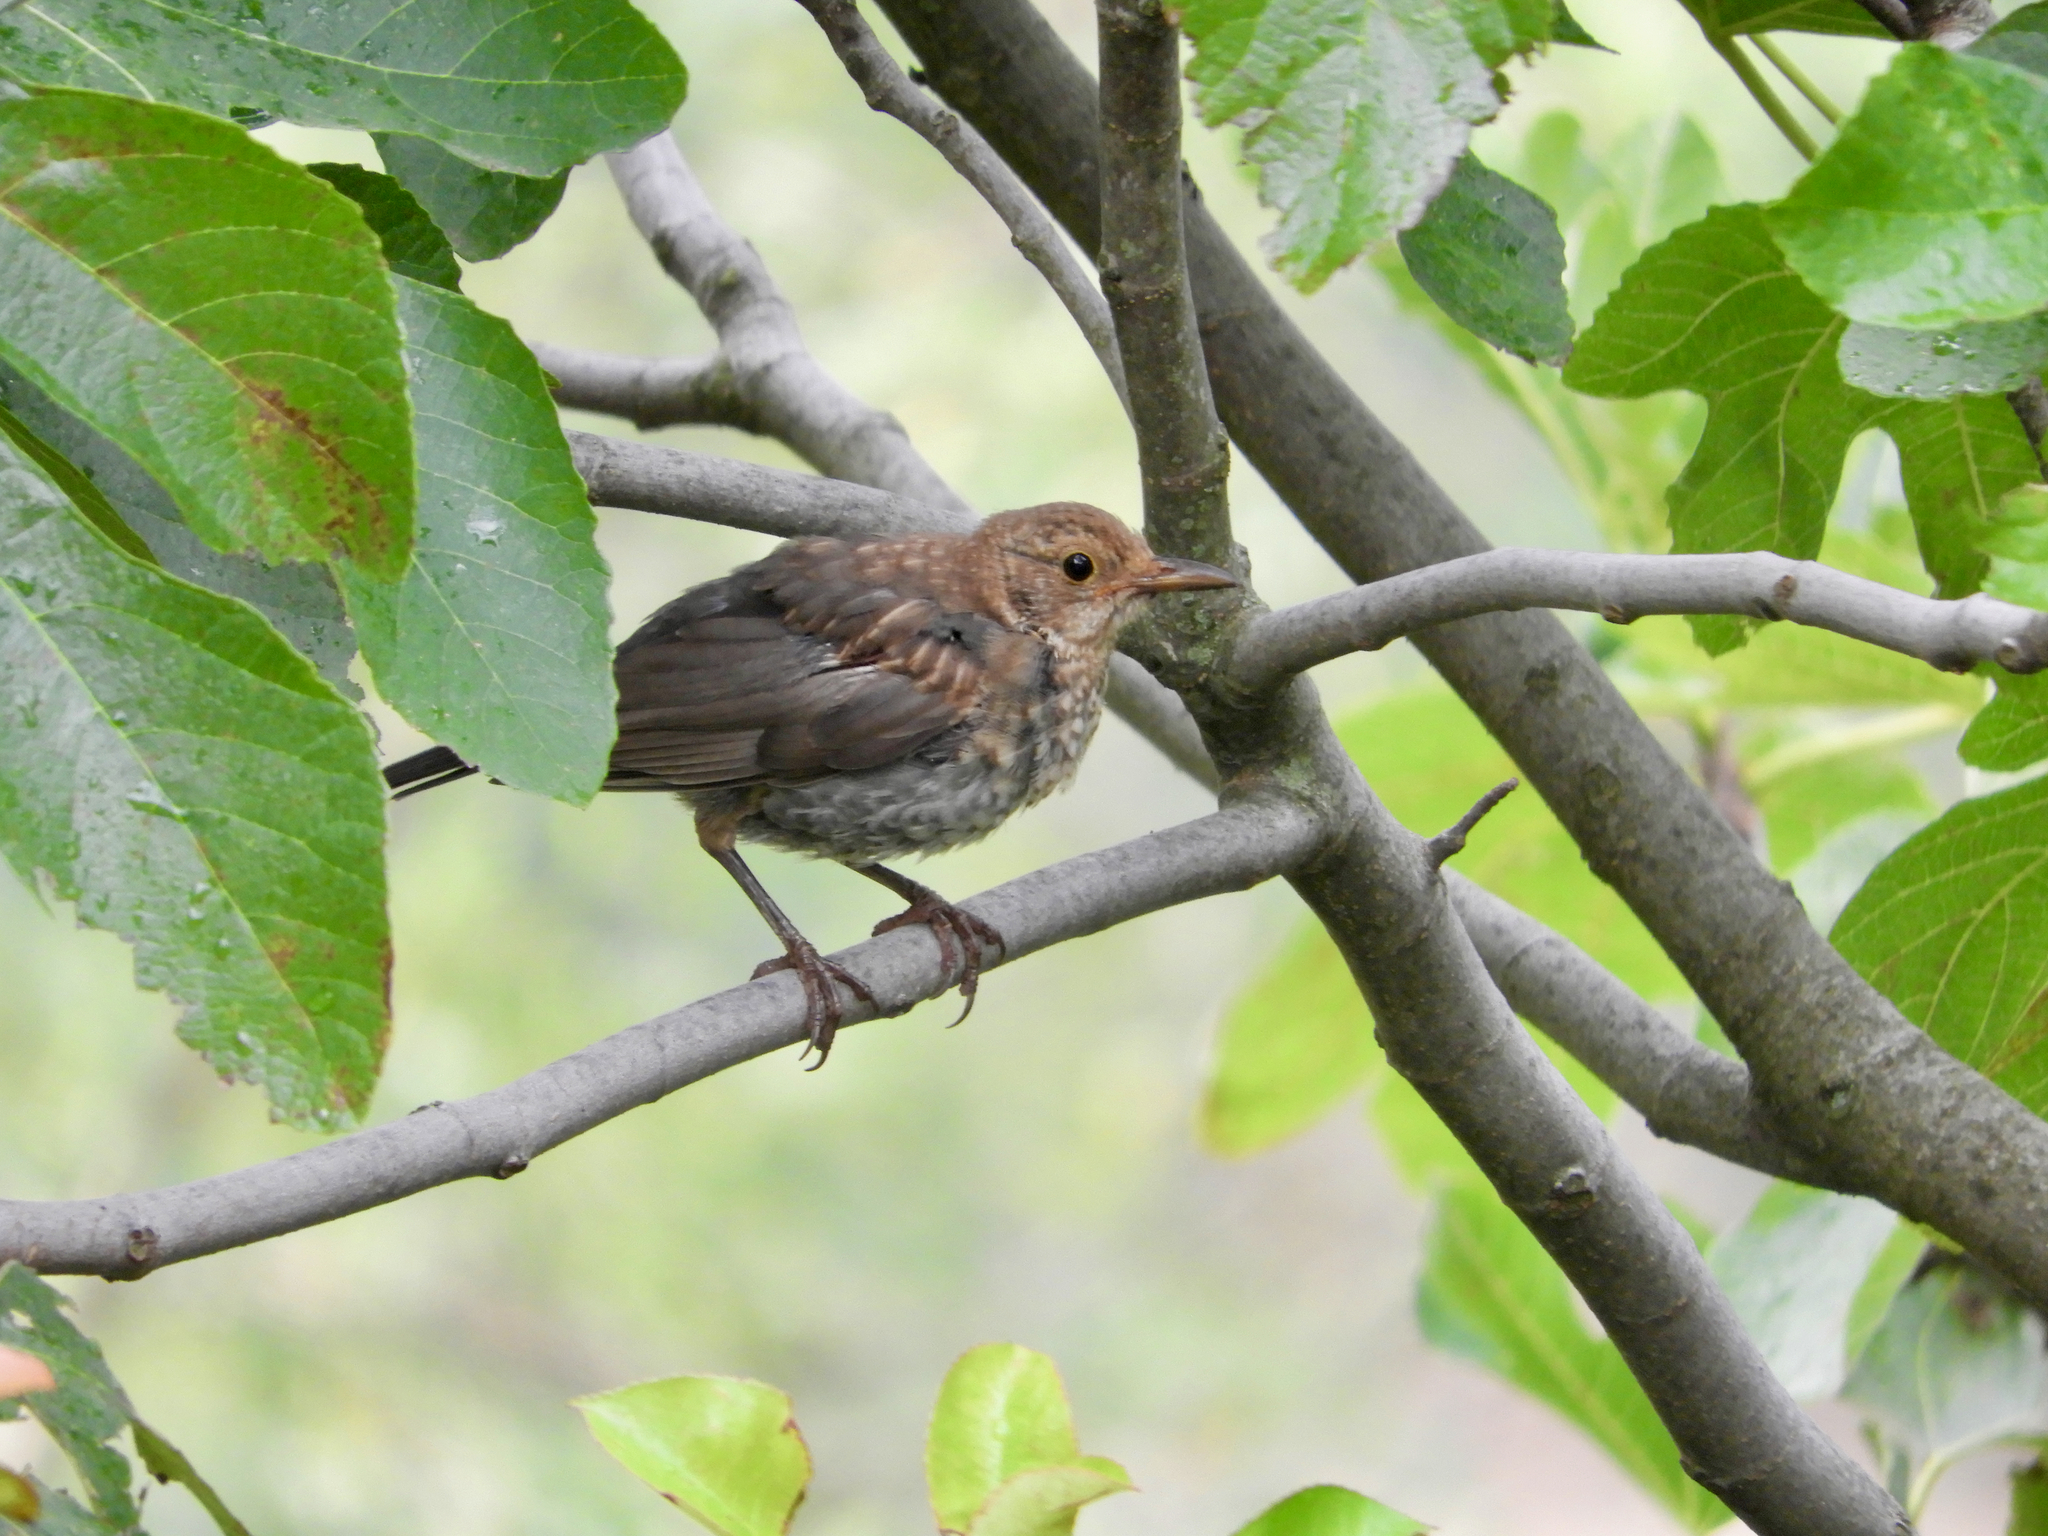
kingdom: Animalia
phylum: Chordata
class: Aves
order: Passeriformes
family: Turdidae
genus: Turdus
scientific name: Turdus merula
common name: Common blackbird
